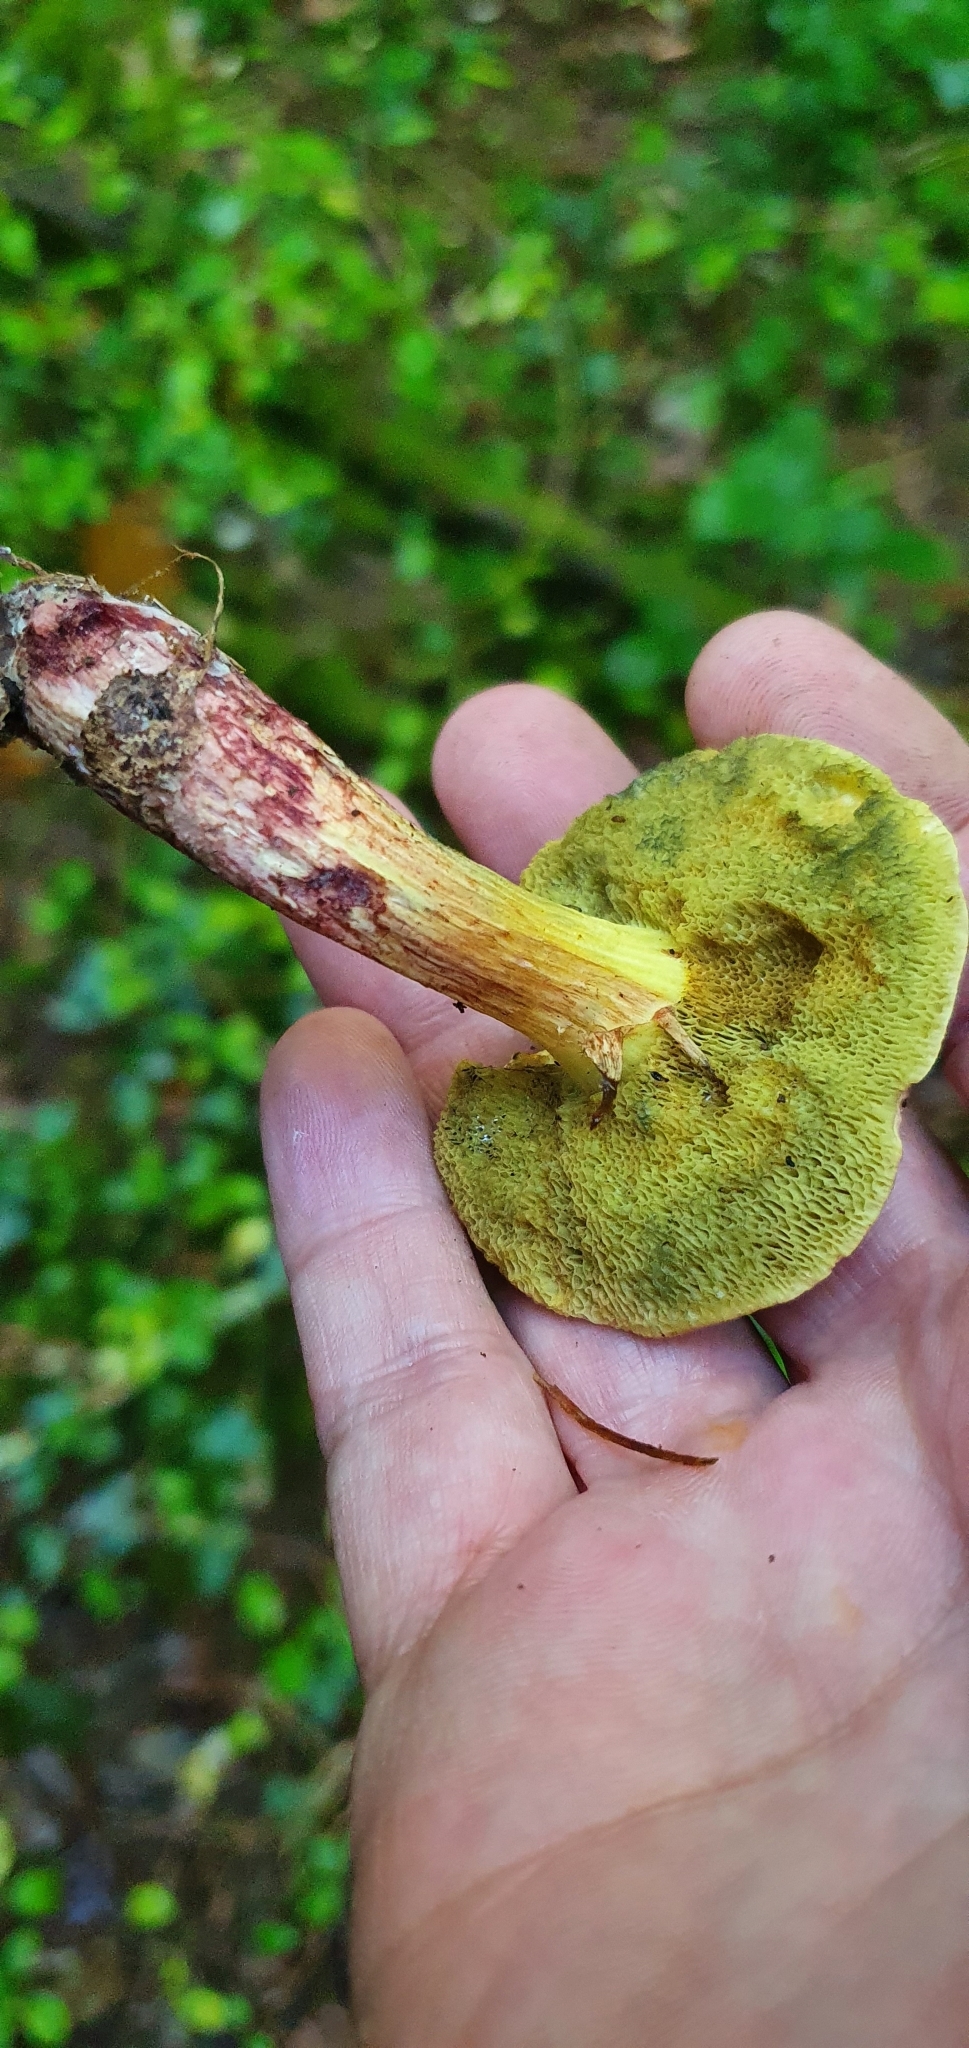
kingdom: Fungi
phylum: Basidiomycota
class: Agaricomycetes
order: Boletales
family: Boletaceae
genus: Xerocomellus
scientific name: Xerocomellus chrysenteron
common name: Red-cracking bolete
